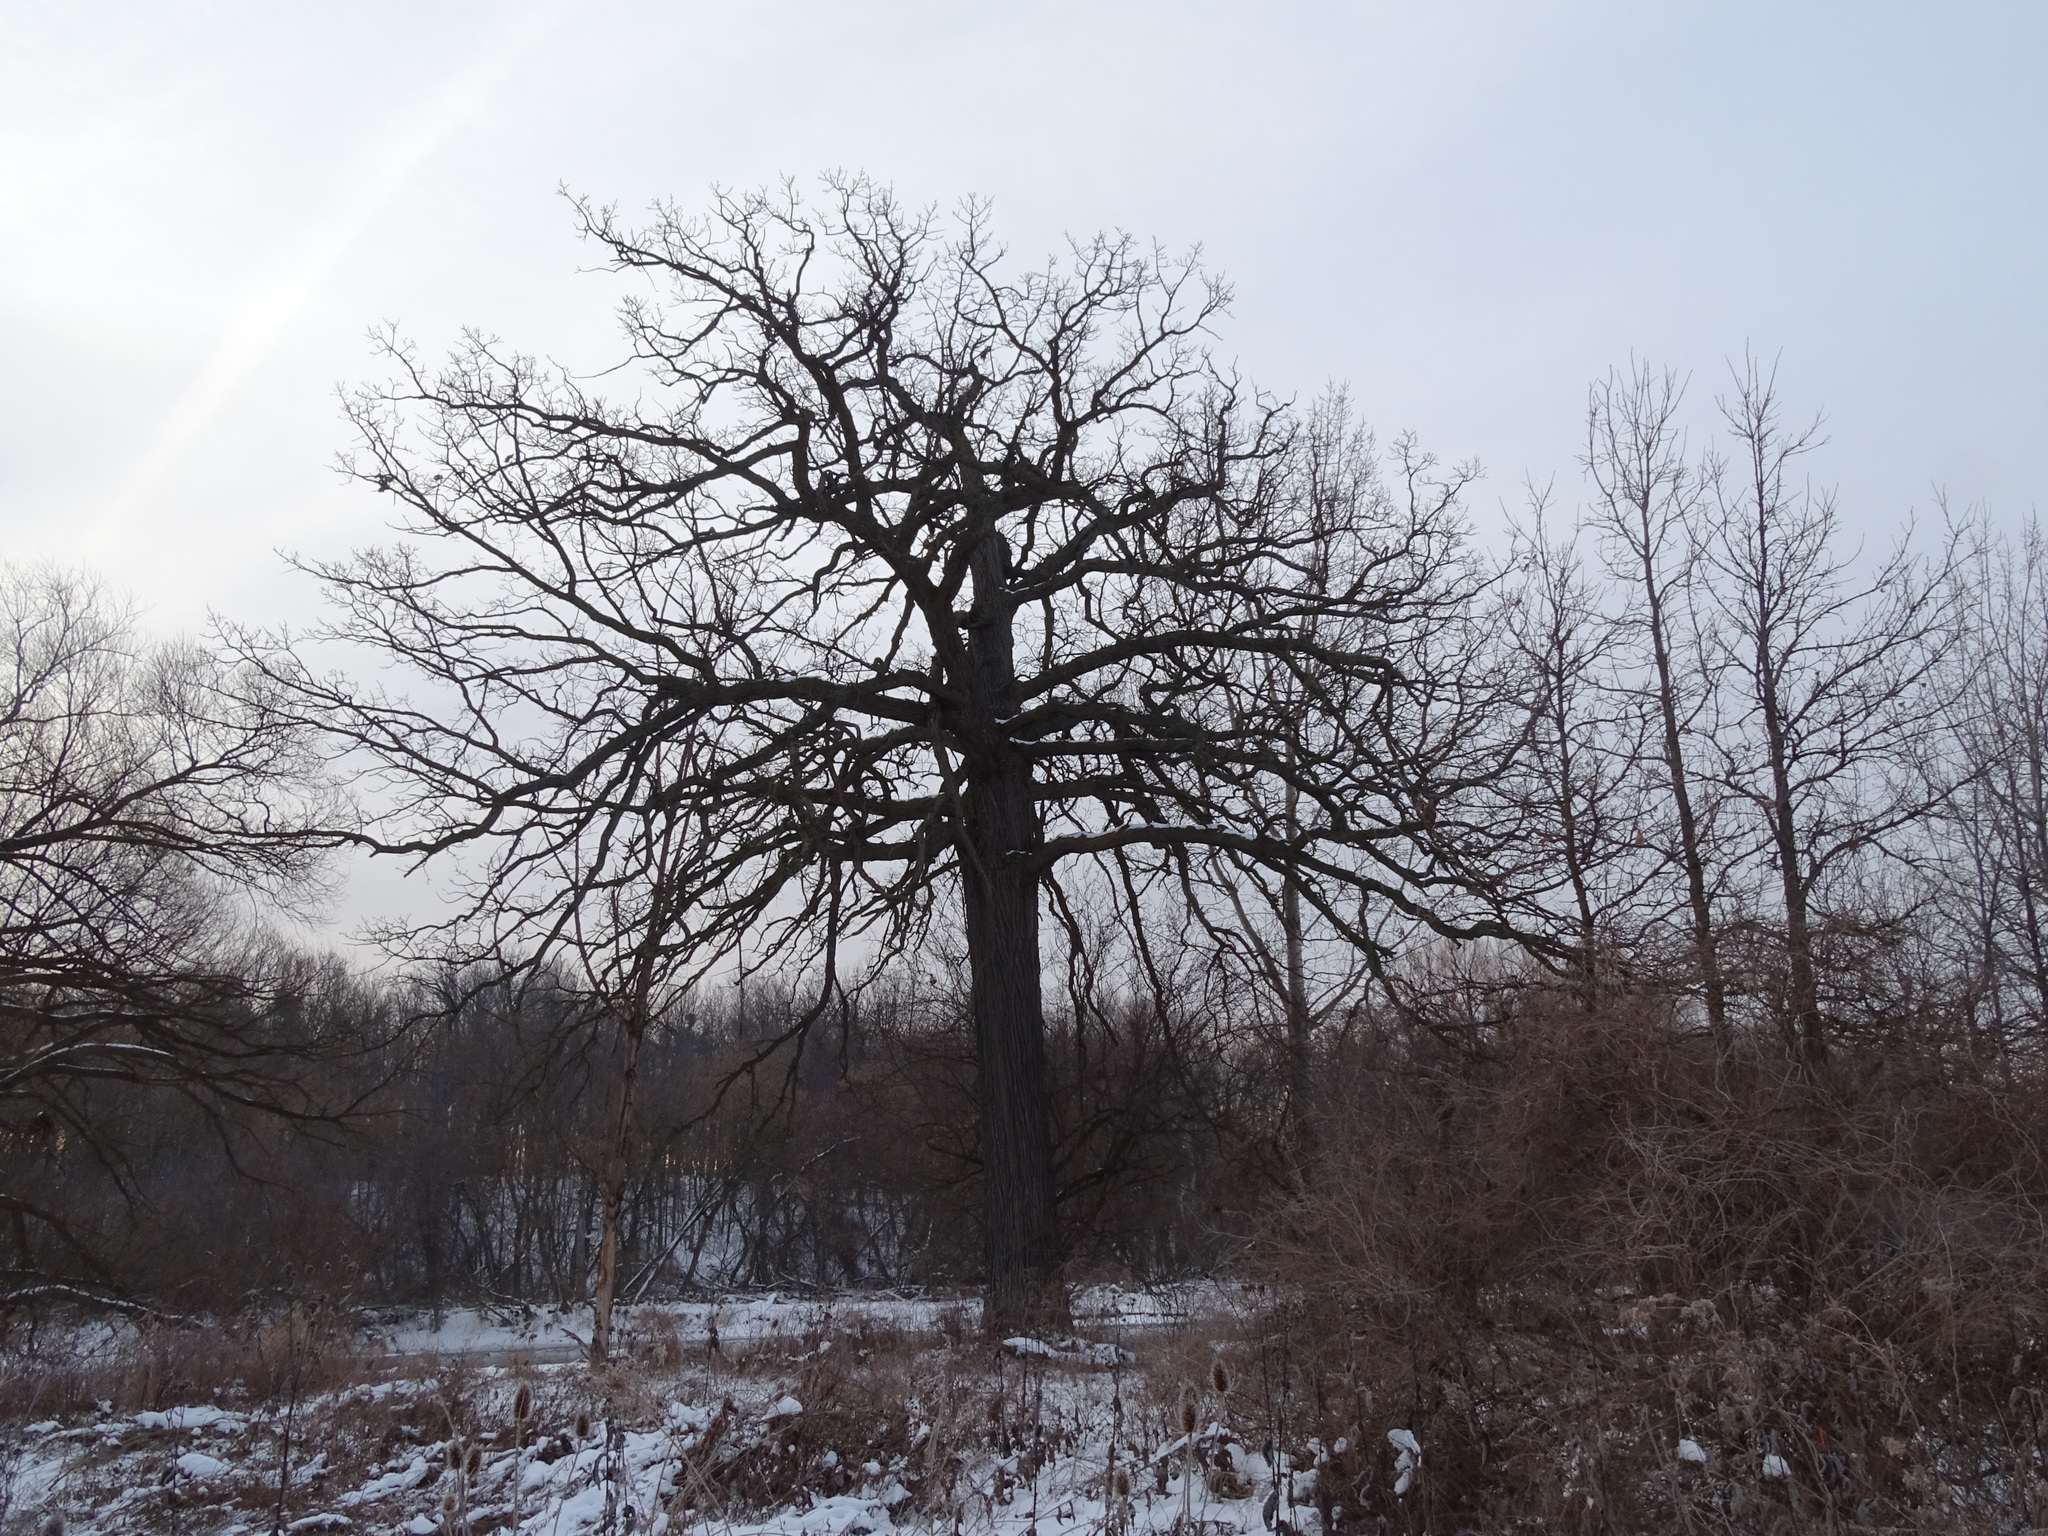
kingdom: Plantae
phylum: Tracheophyta
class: Magnoliopsida
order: Fagales
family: Fagaceae
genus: Quercus
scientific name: Quercus macrocarpa
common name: Bur oak
